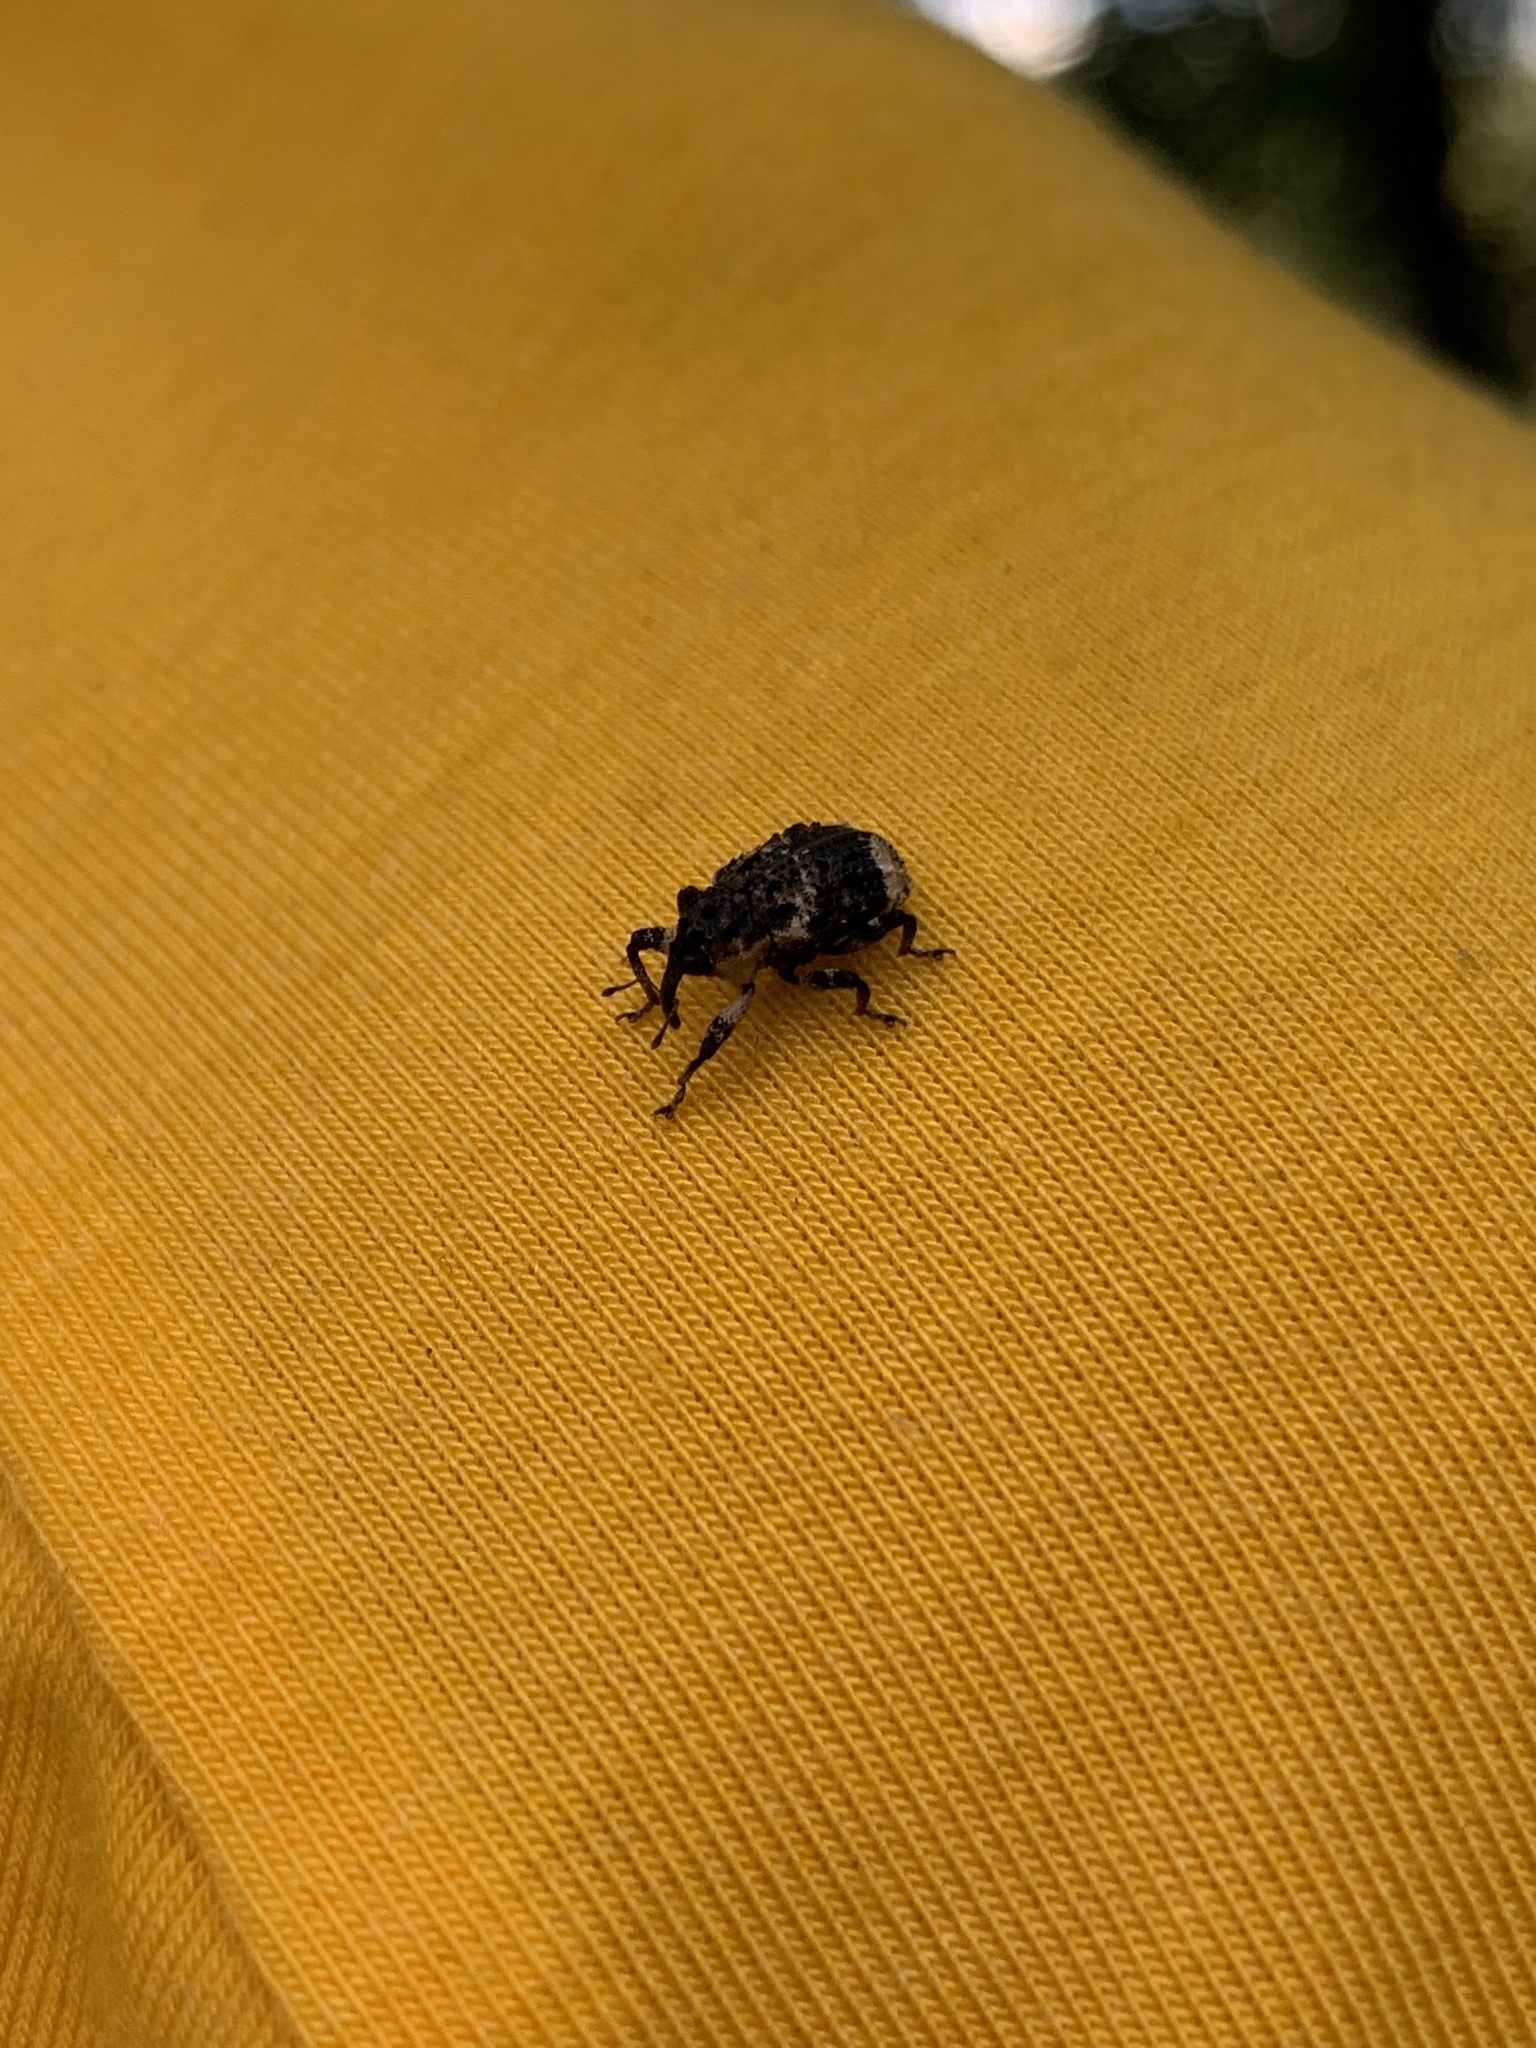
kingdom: Animalia
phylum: Arthropoda
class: Insecta
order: Coleoptera
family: Curculionidae
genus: Cryptorhynchus
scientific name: Cryptorhynchus lapathi
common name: Weevil
